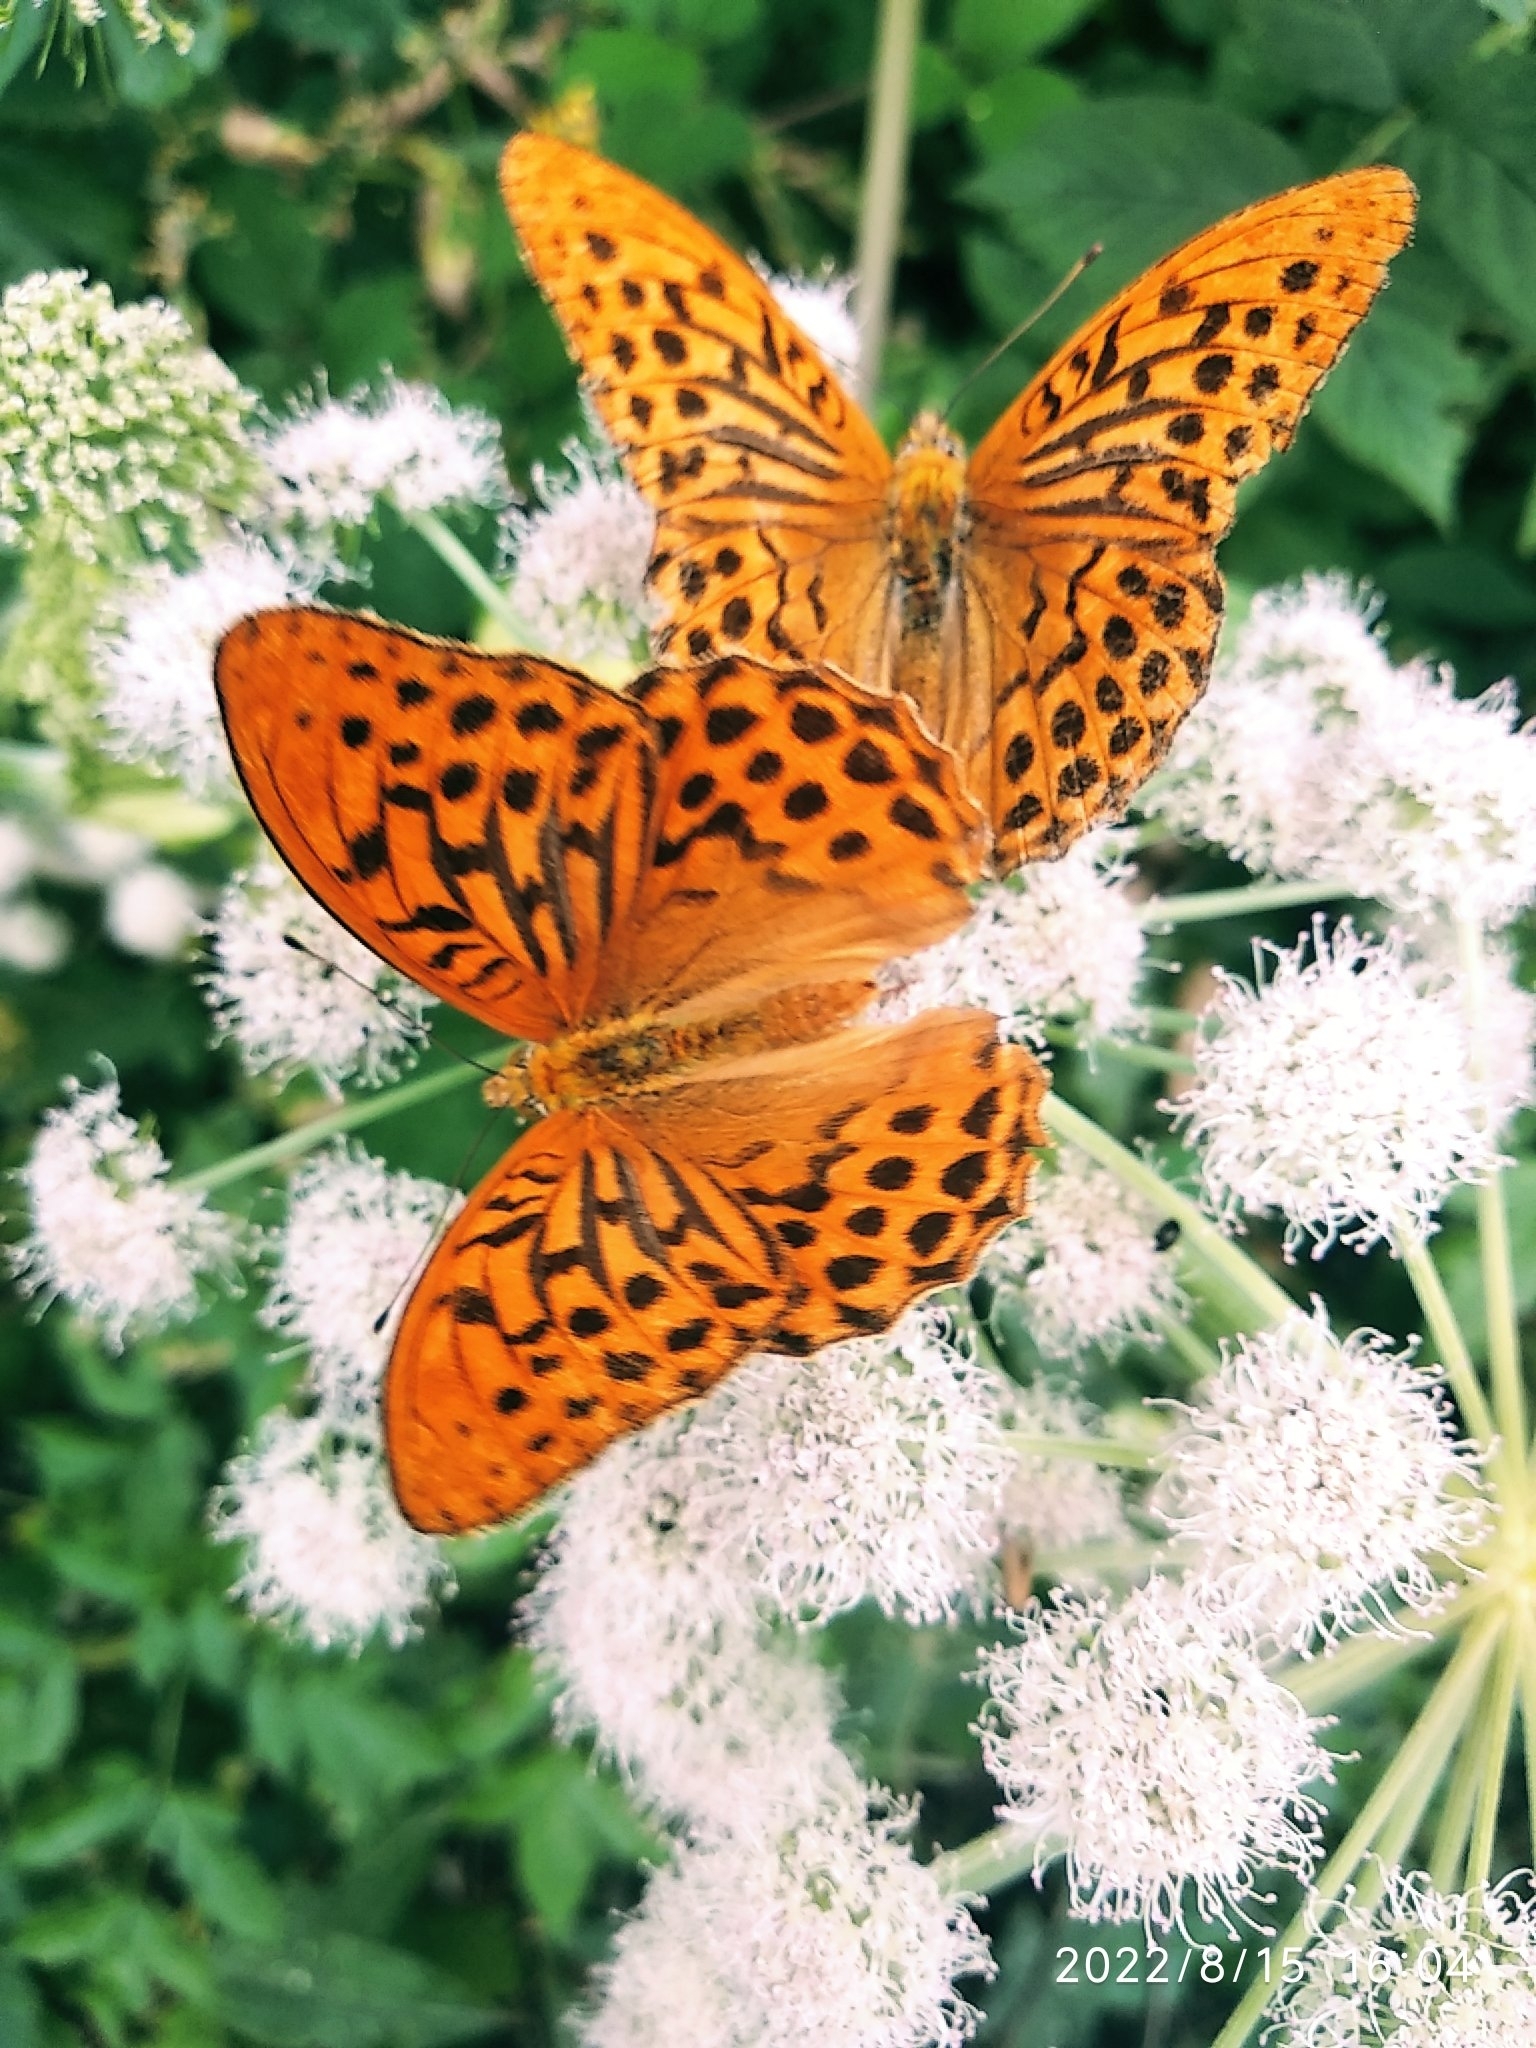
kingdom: Animalia
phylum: Arthropoda
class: Insecta
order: Lepidoptera
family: Nymphalidae
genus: Argynnis
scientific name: Argynnis paphia
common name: Silver-washed fritillary
